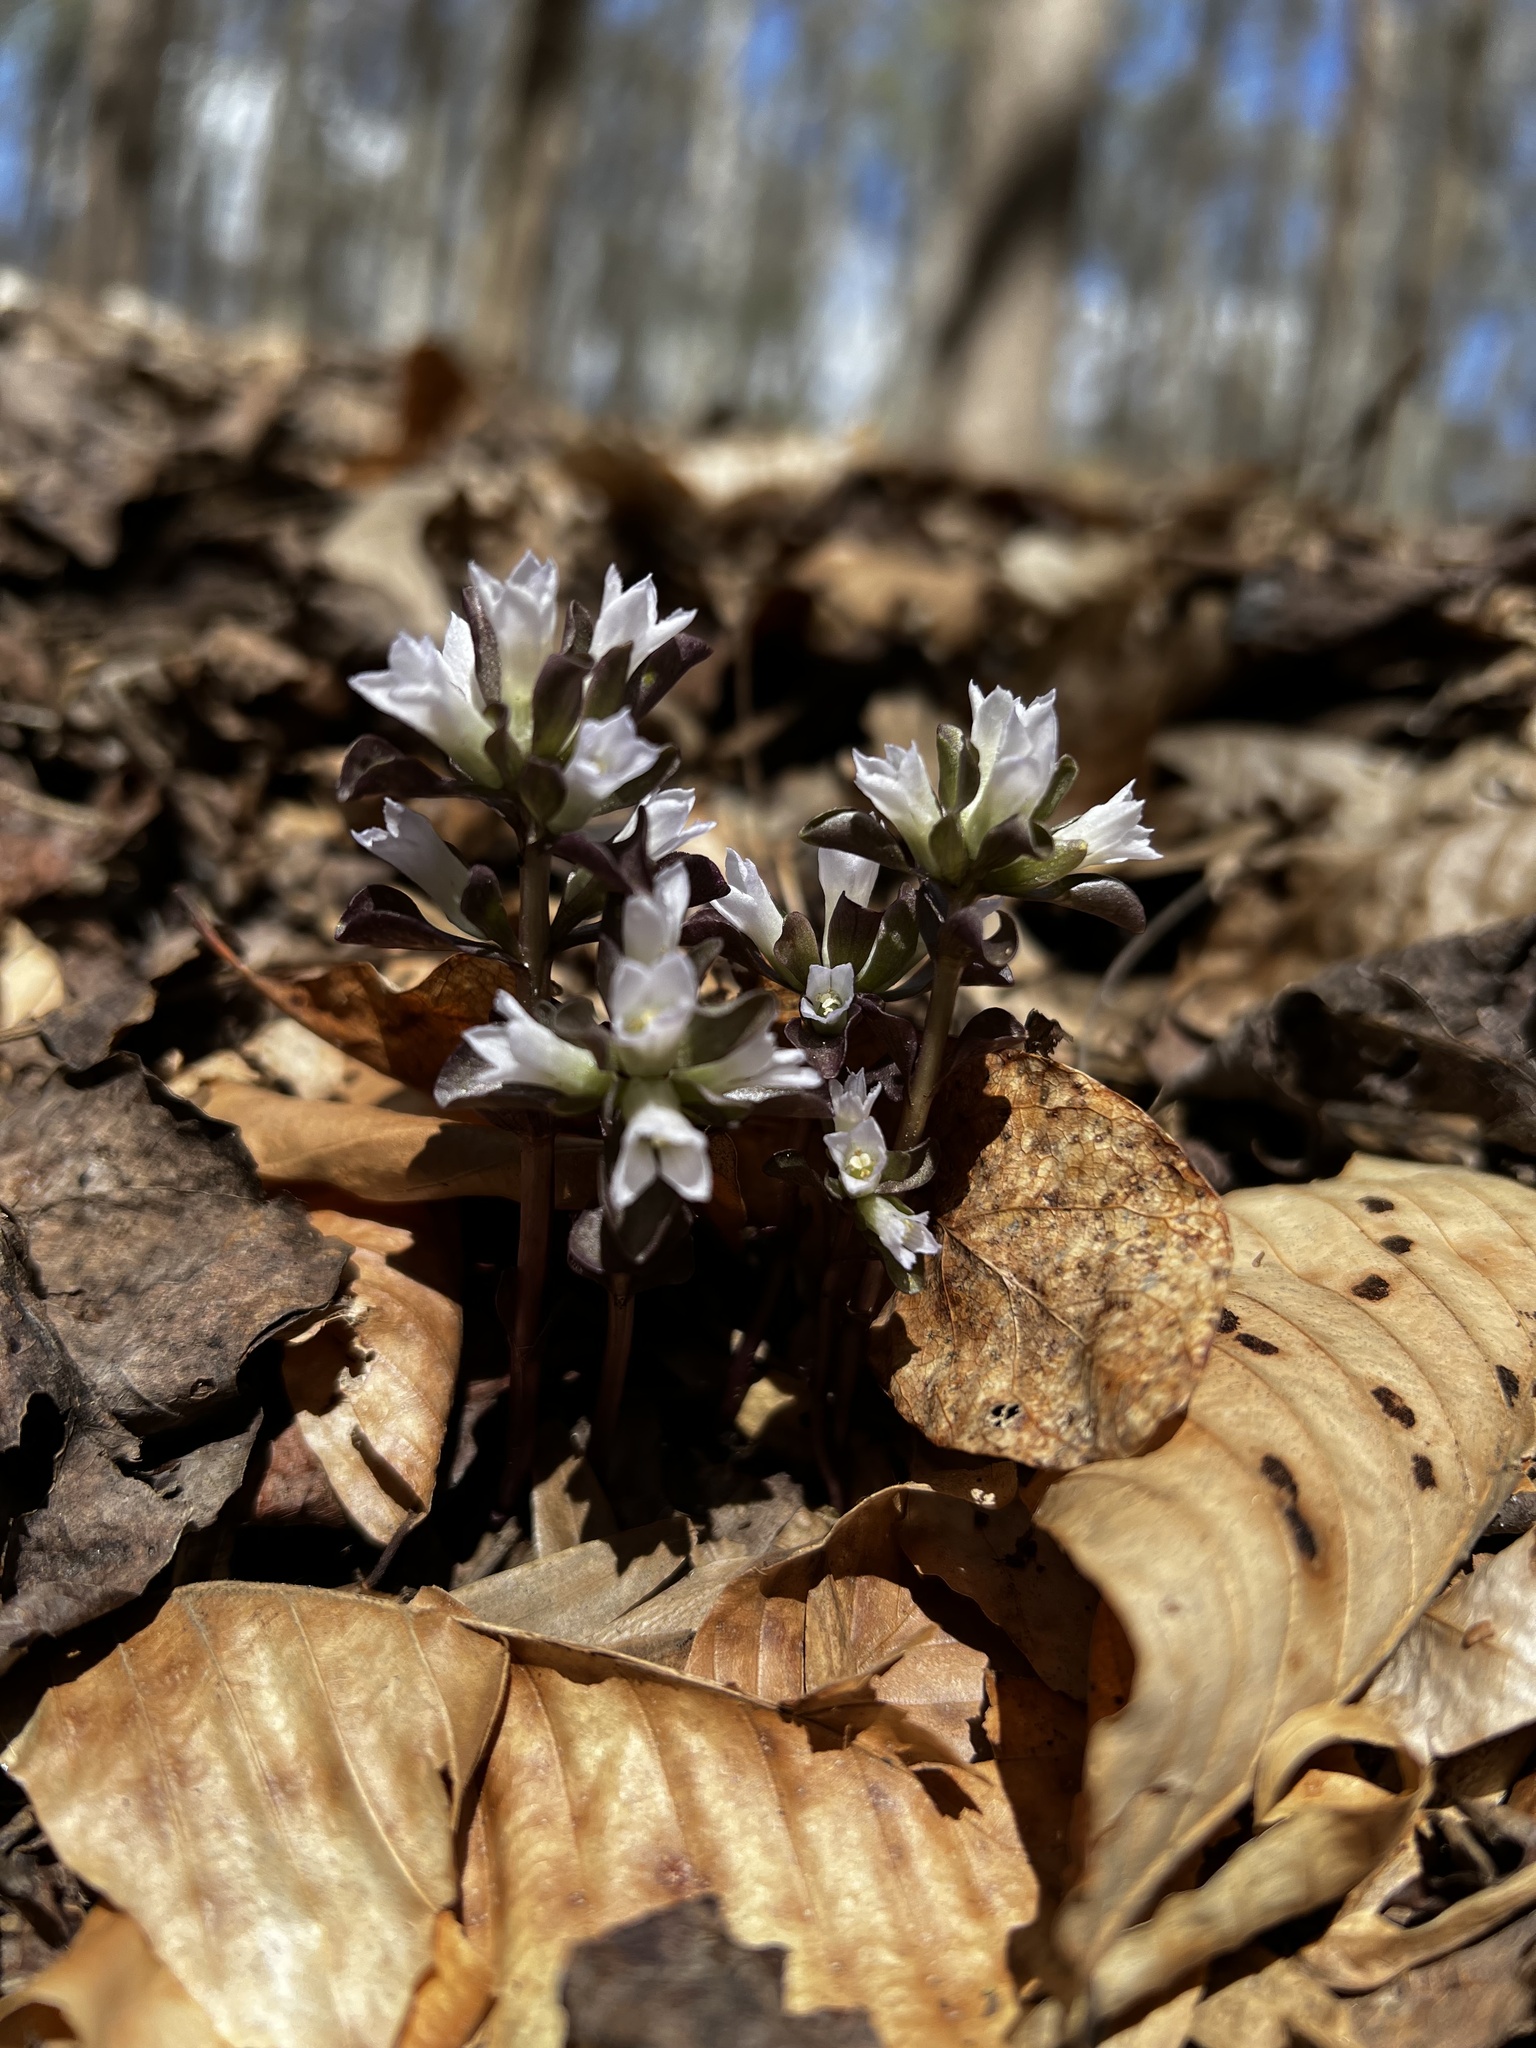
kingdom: Plantae
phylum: Tracheophyta
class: Magnoliopsida
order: Gentianales
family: Gentianaceae
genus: Obolaria
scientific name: Obolaria virginica
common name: Pennywort
